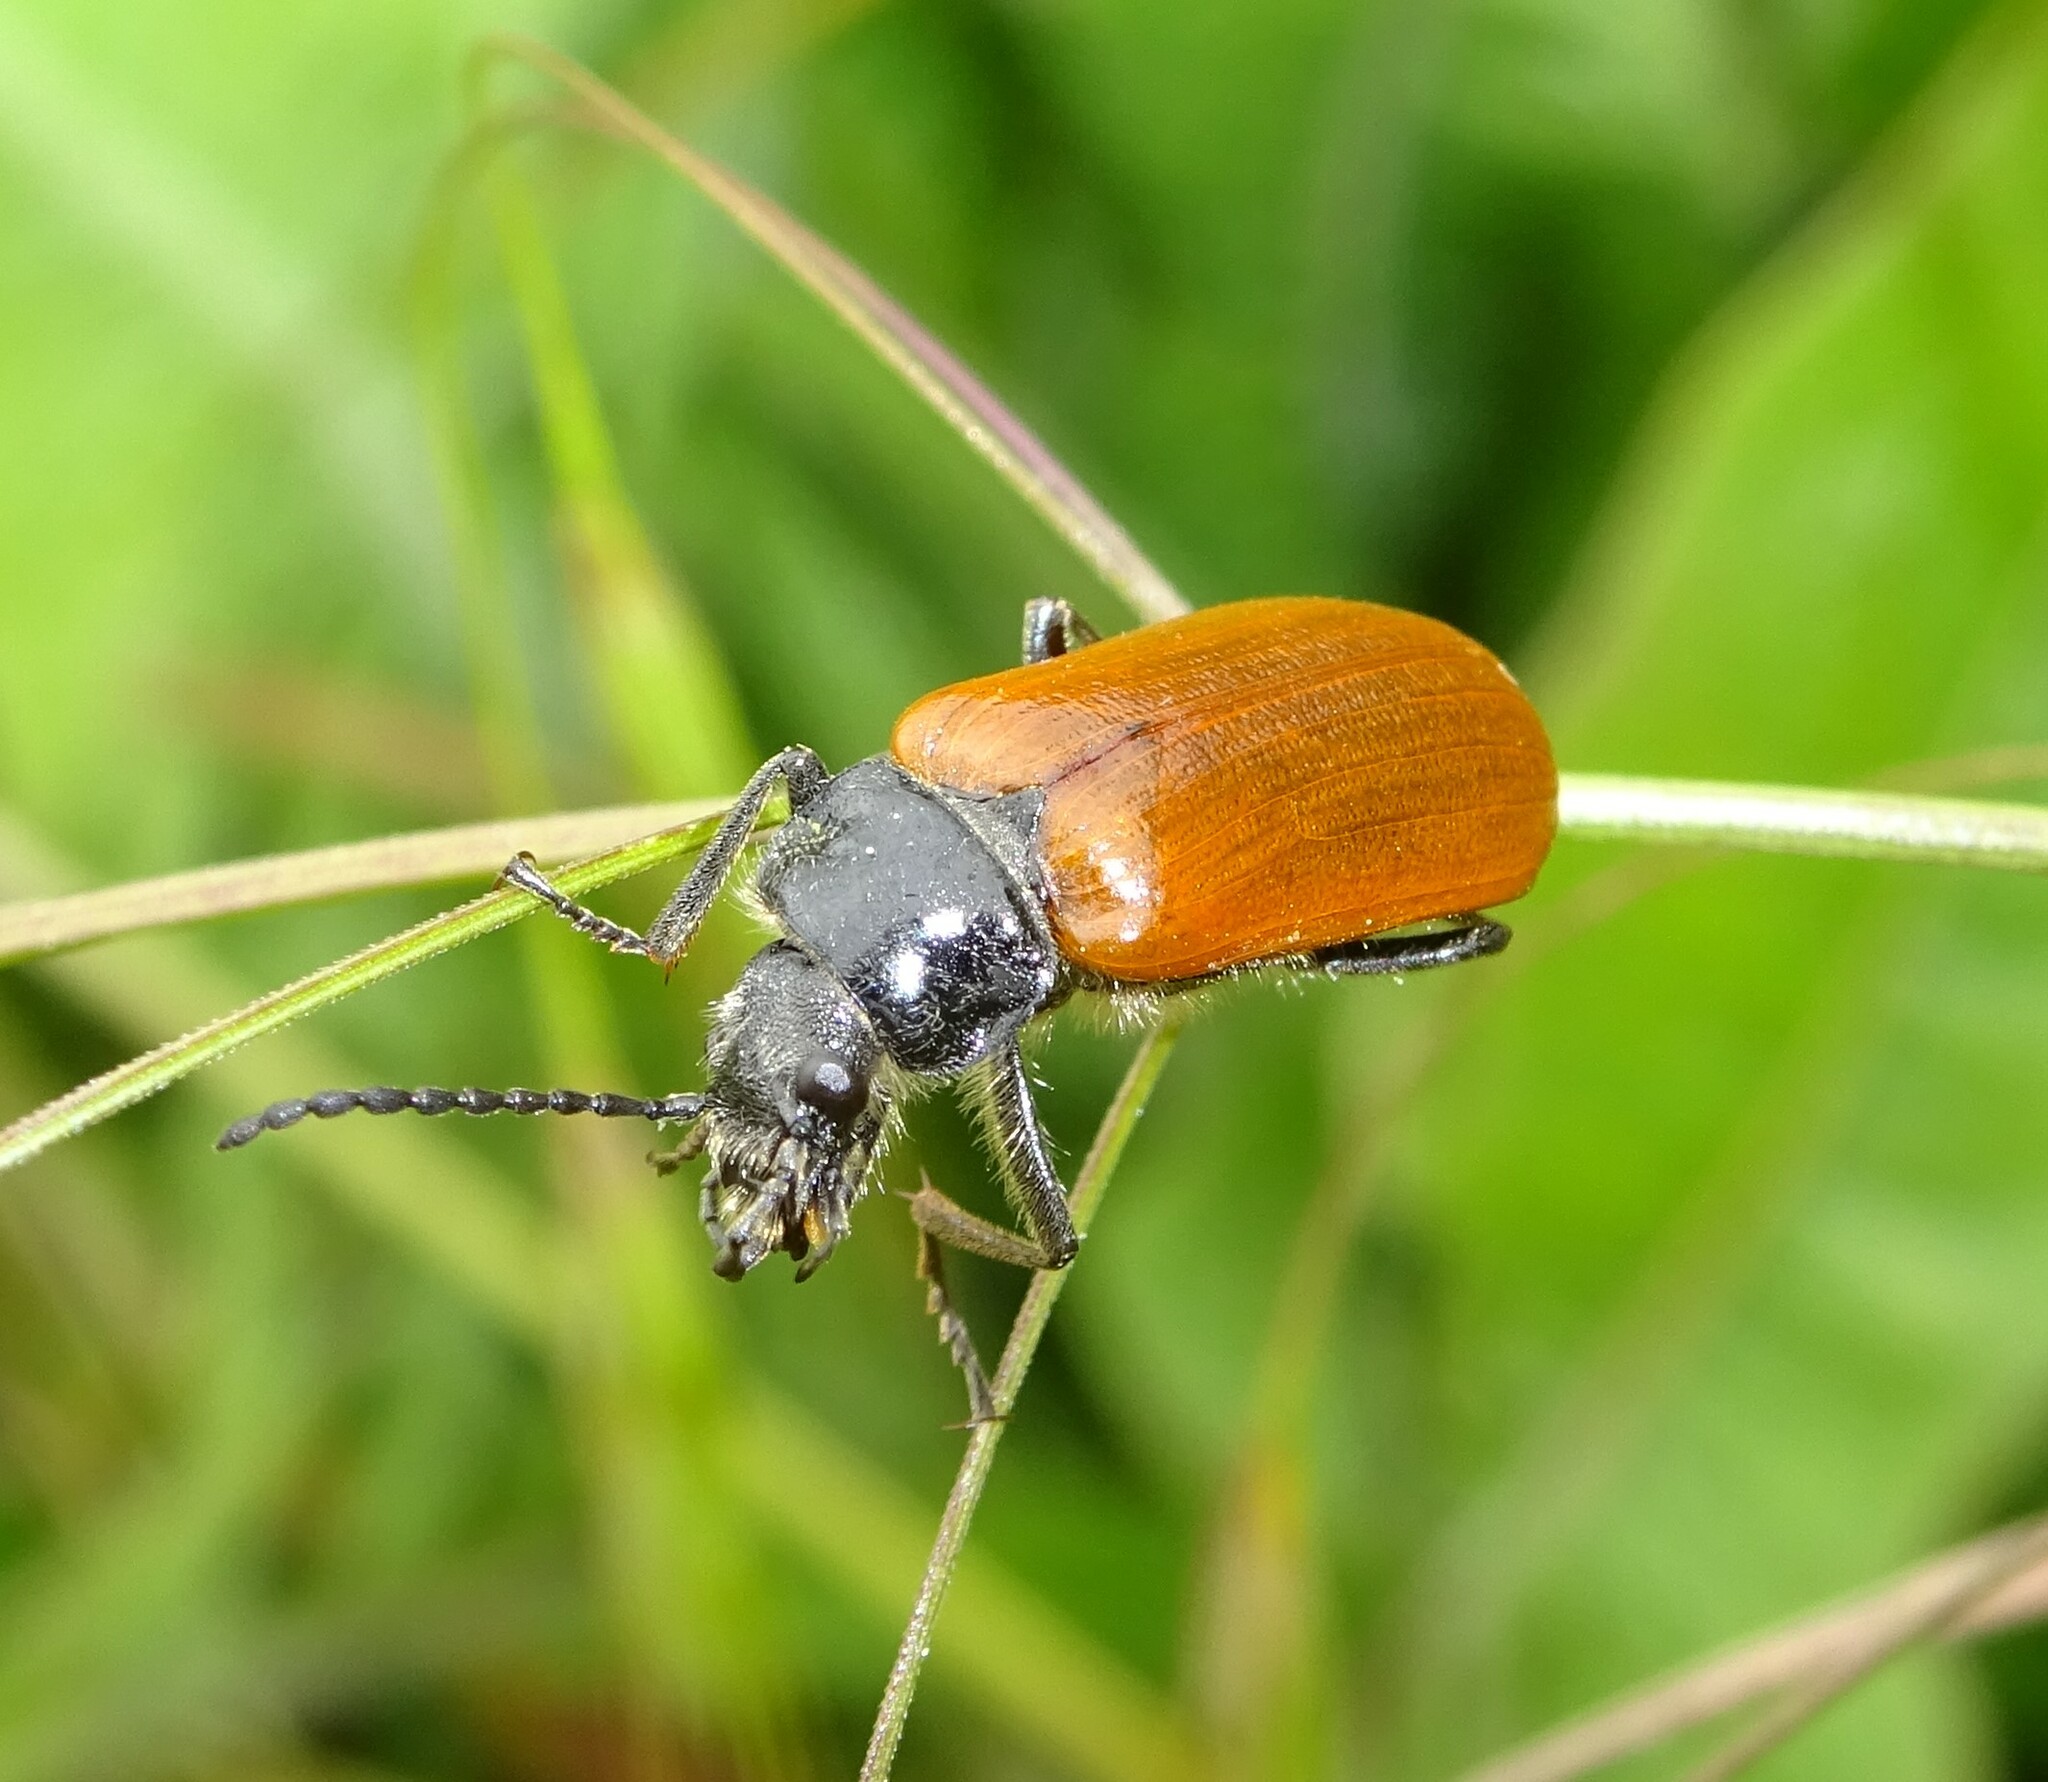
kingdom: Animalia
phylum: Arthropoda
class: Insecta
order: Coleoptera
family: Tenebrionidae
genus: Omophlus
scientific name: Omophlus lepturoides
